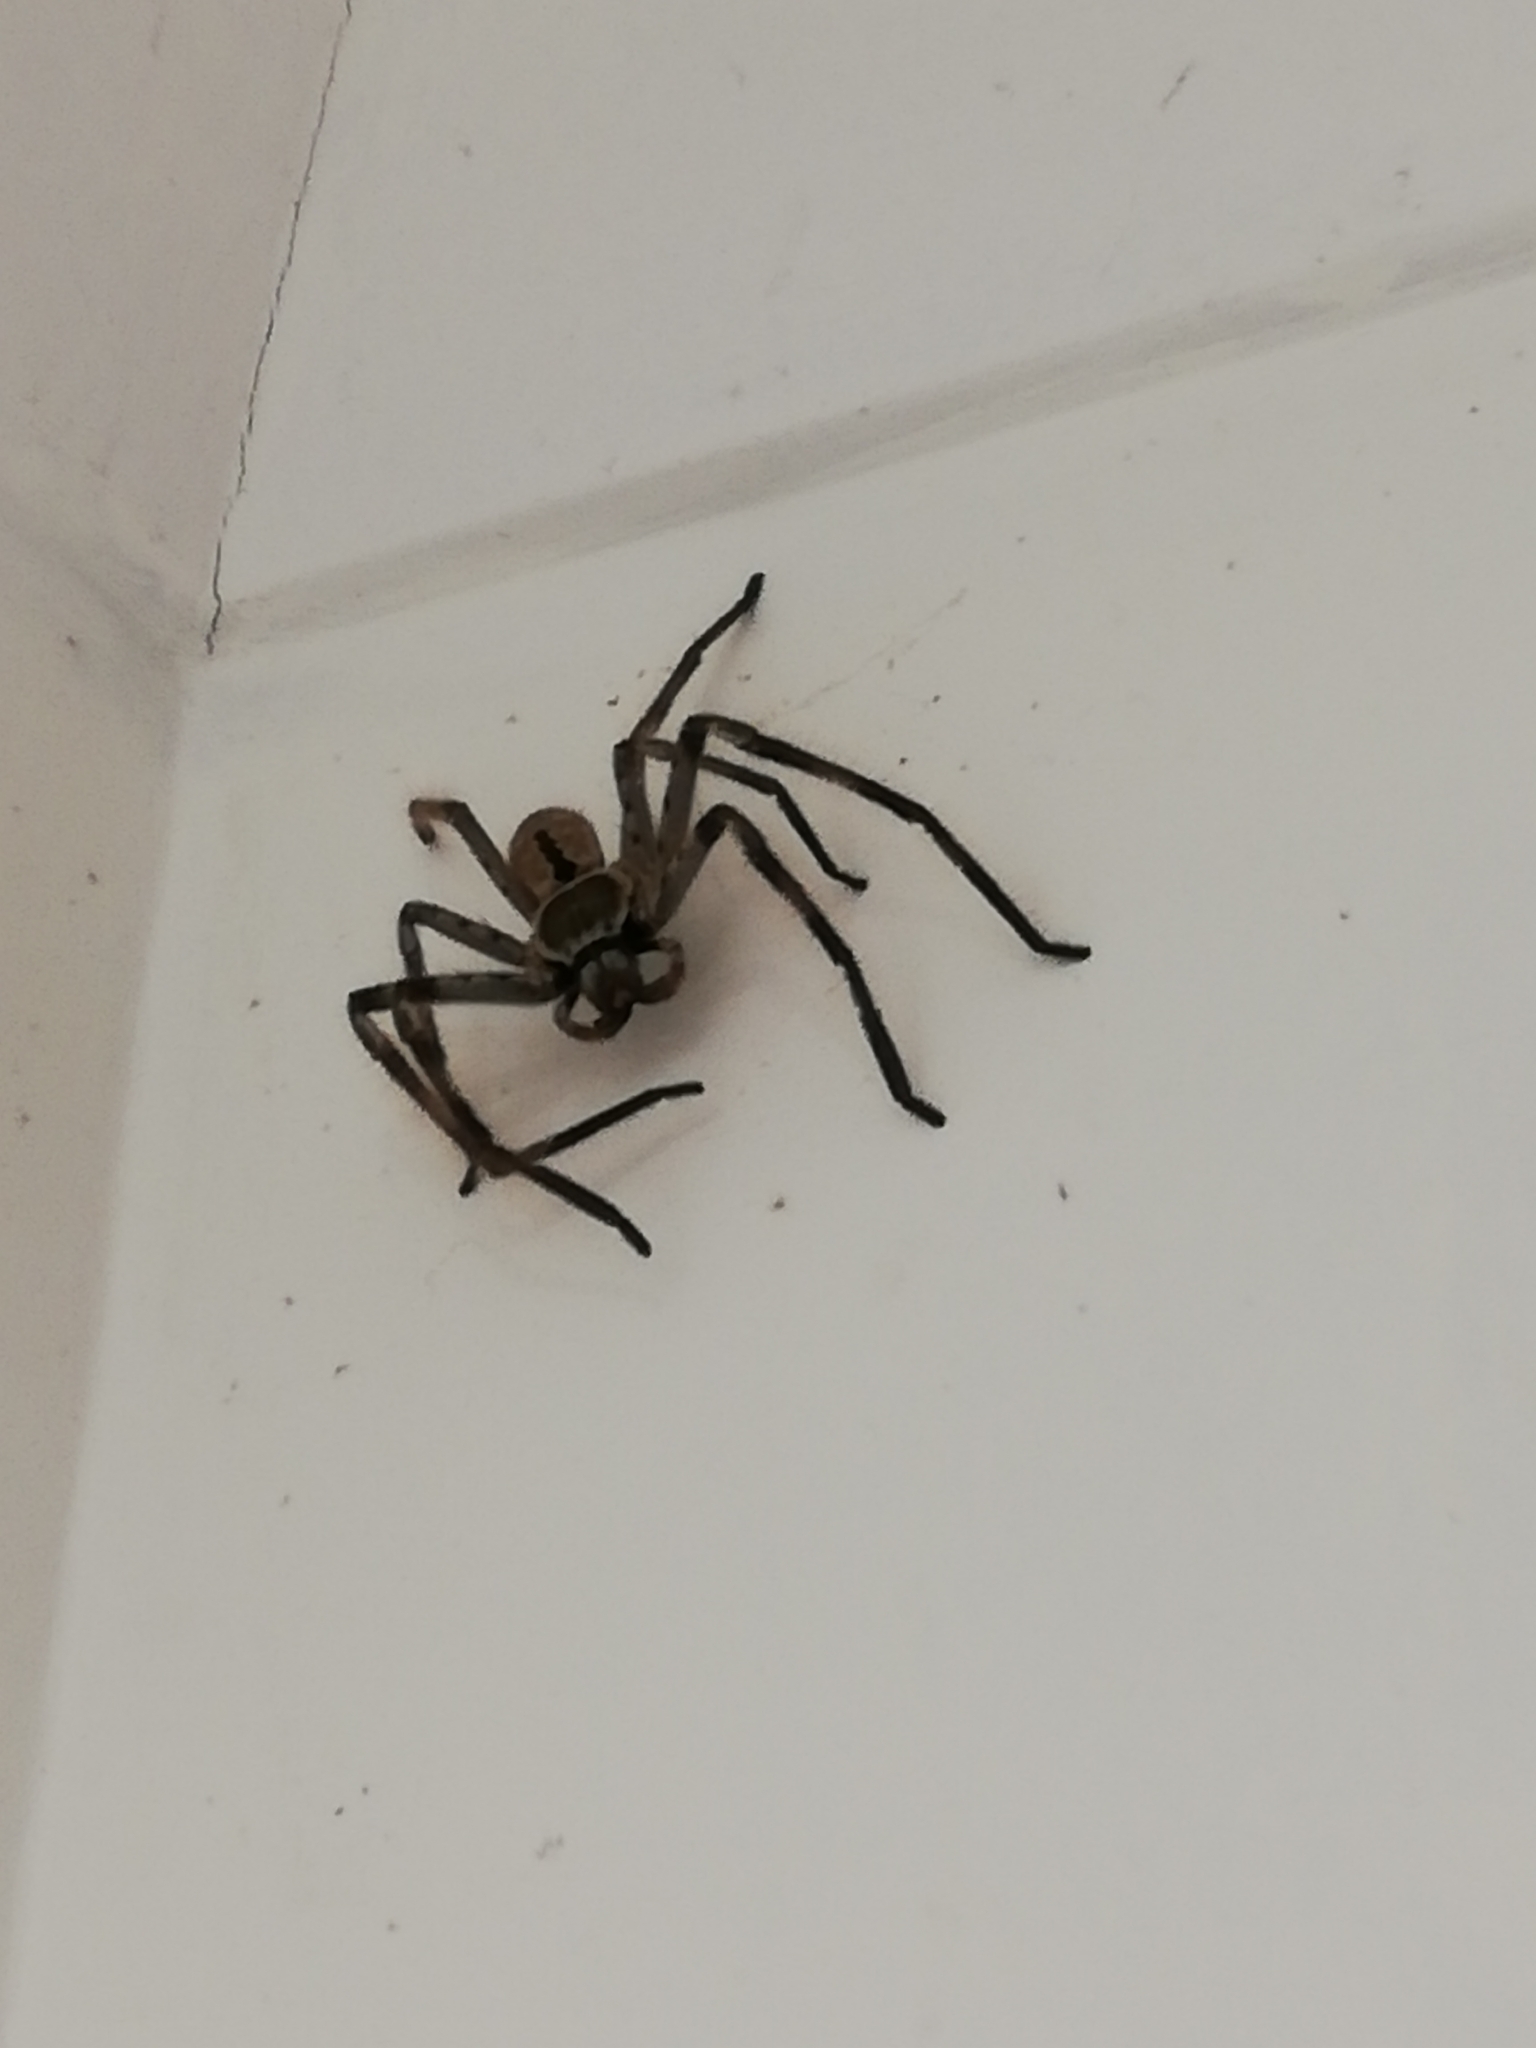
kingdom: Animalia
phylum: Arthropoda
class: Arachnida
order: Araneae
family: Sparassidae
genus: Holconia
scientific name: Holconia immanis
